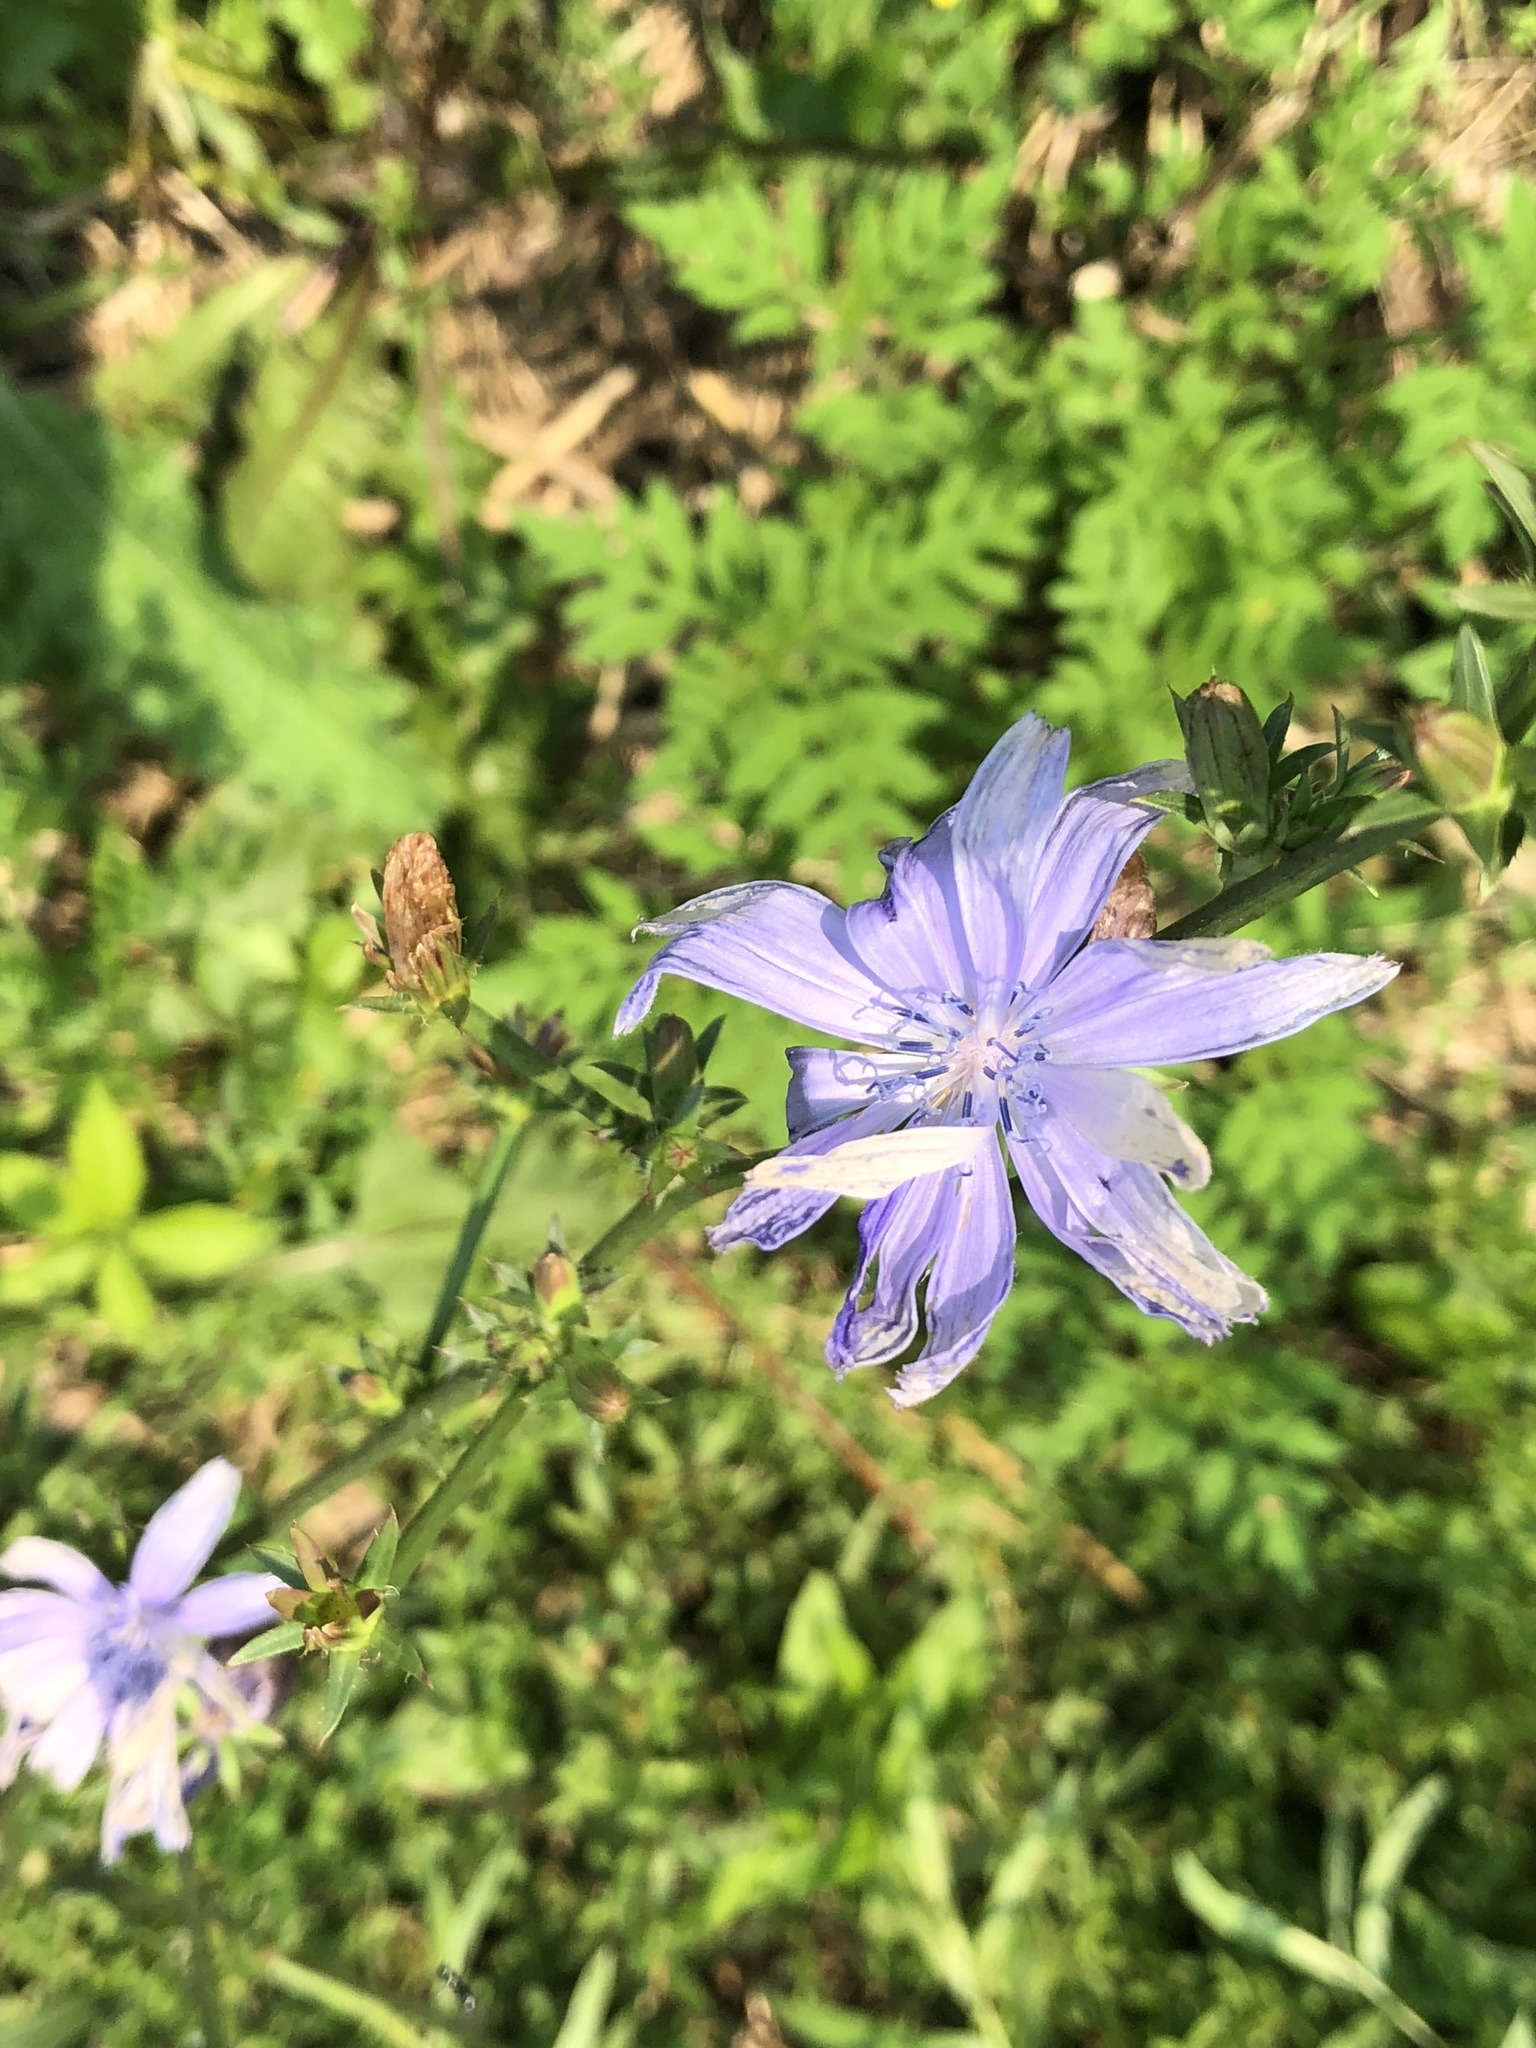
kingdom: Plantae
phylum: Tracheophyta
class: Magnoliopsida
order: Asterales
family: Asteraceae
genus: Cichorium
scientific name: Cichorium intybus
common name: Chicory
